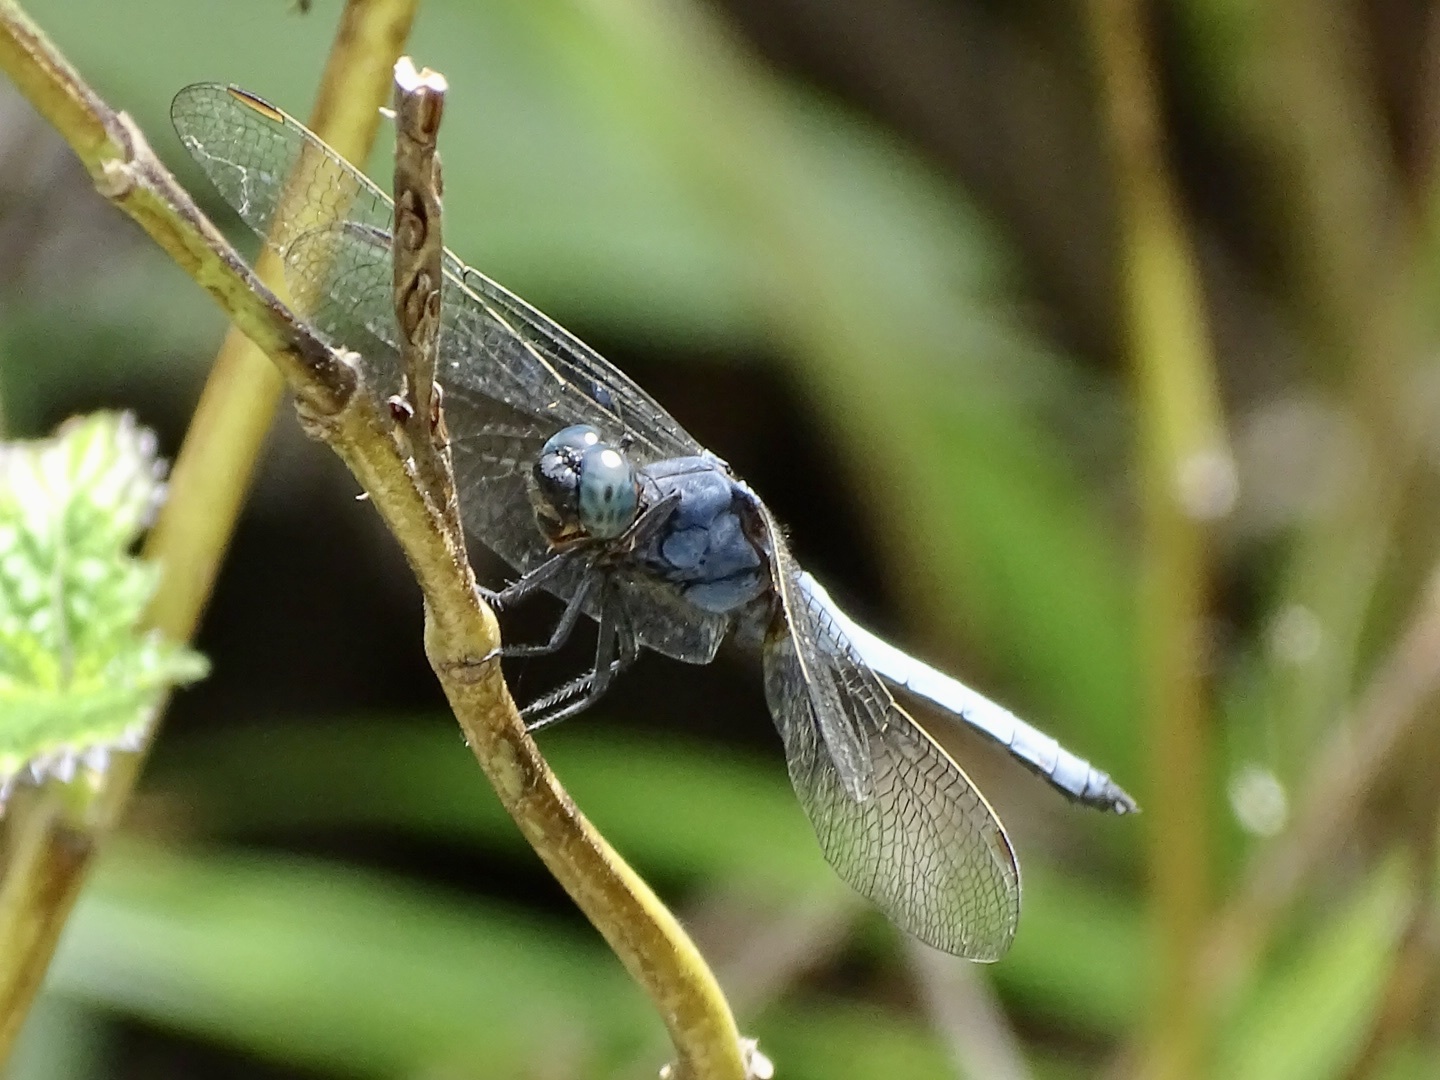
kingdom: Animalia
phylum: Arthropoda
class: Insecta
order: Odonata
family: Libellulidae
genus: Orthetrum
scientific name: Orthetrum glaucum
